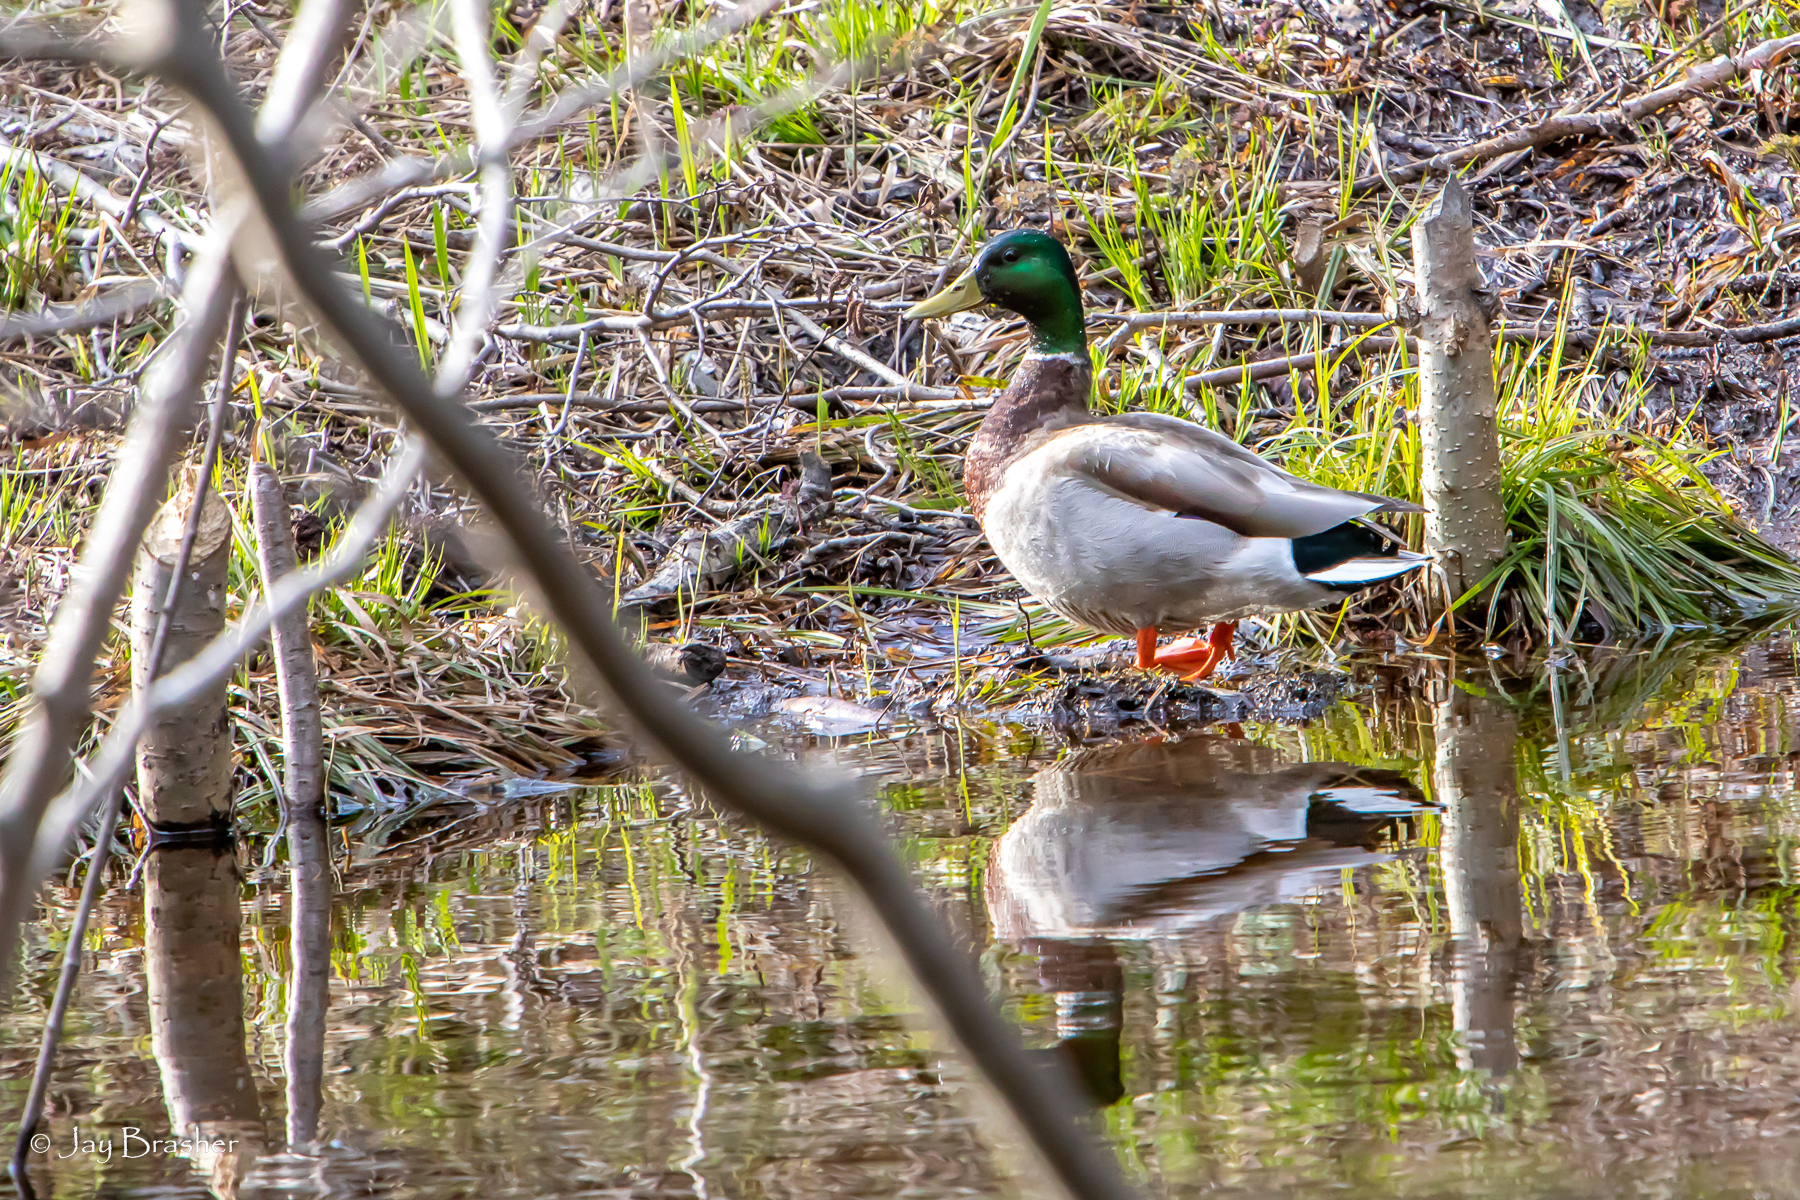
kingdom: Animalia
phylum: Chordata
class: Aves
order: Anseriformes
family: Anatidae
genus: Anas
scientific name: Anas platyrhynchos
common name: Mallard
